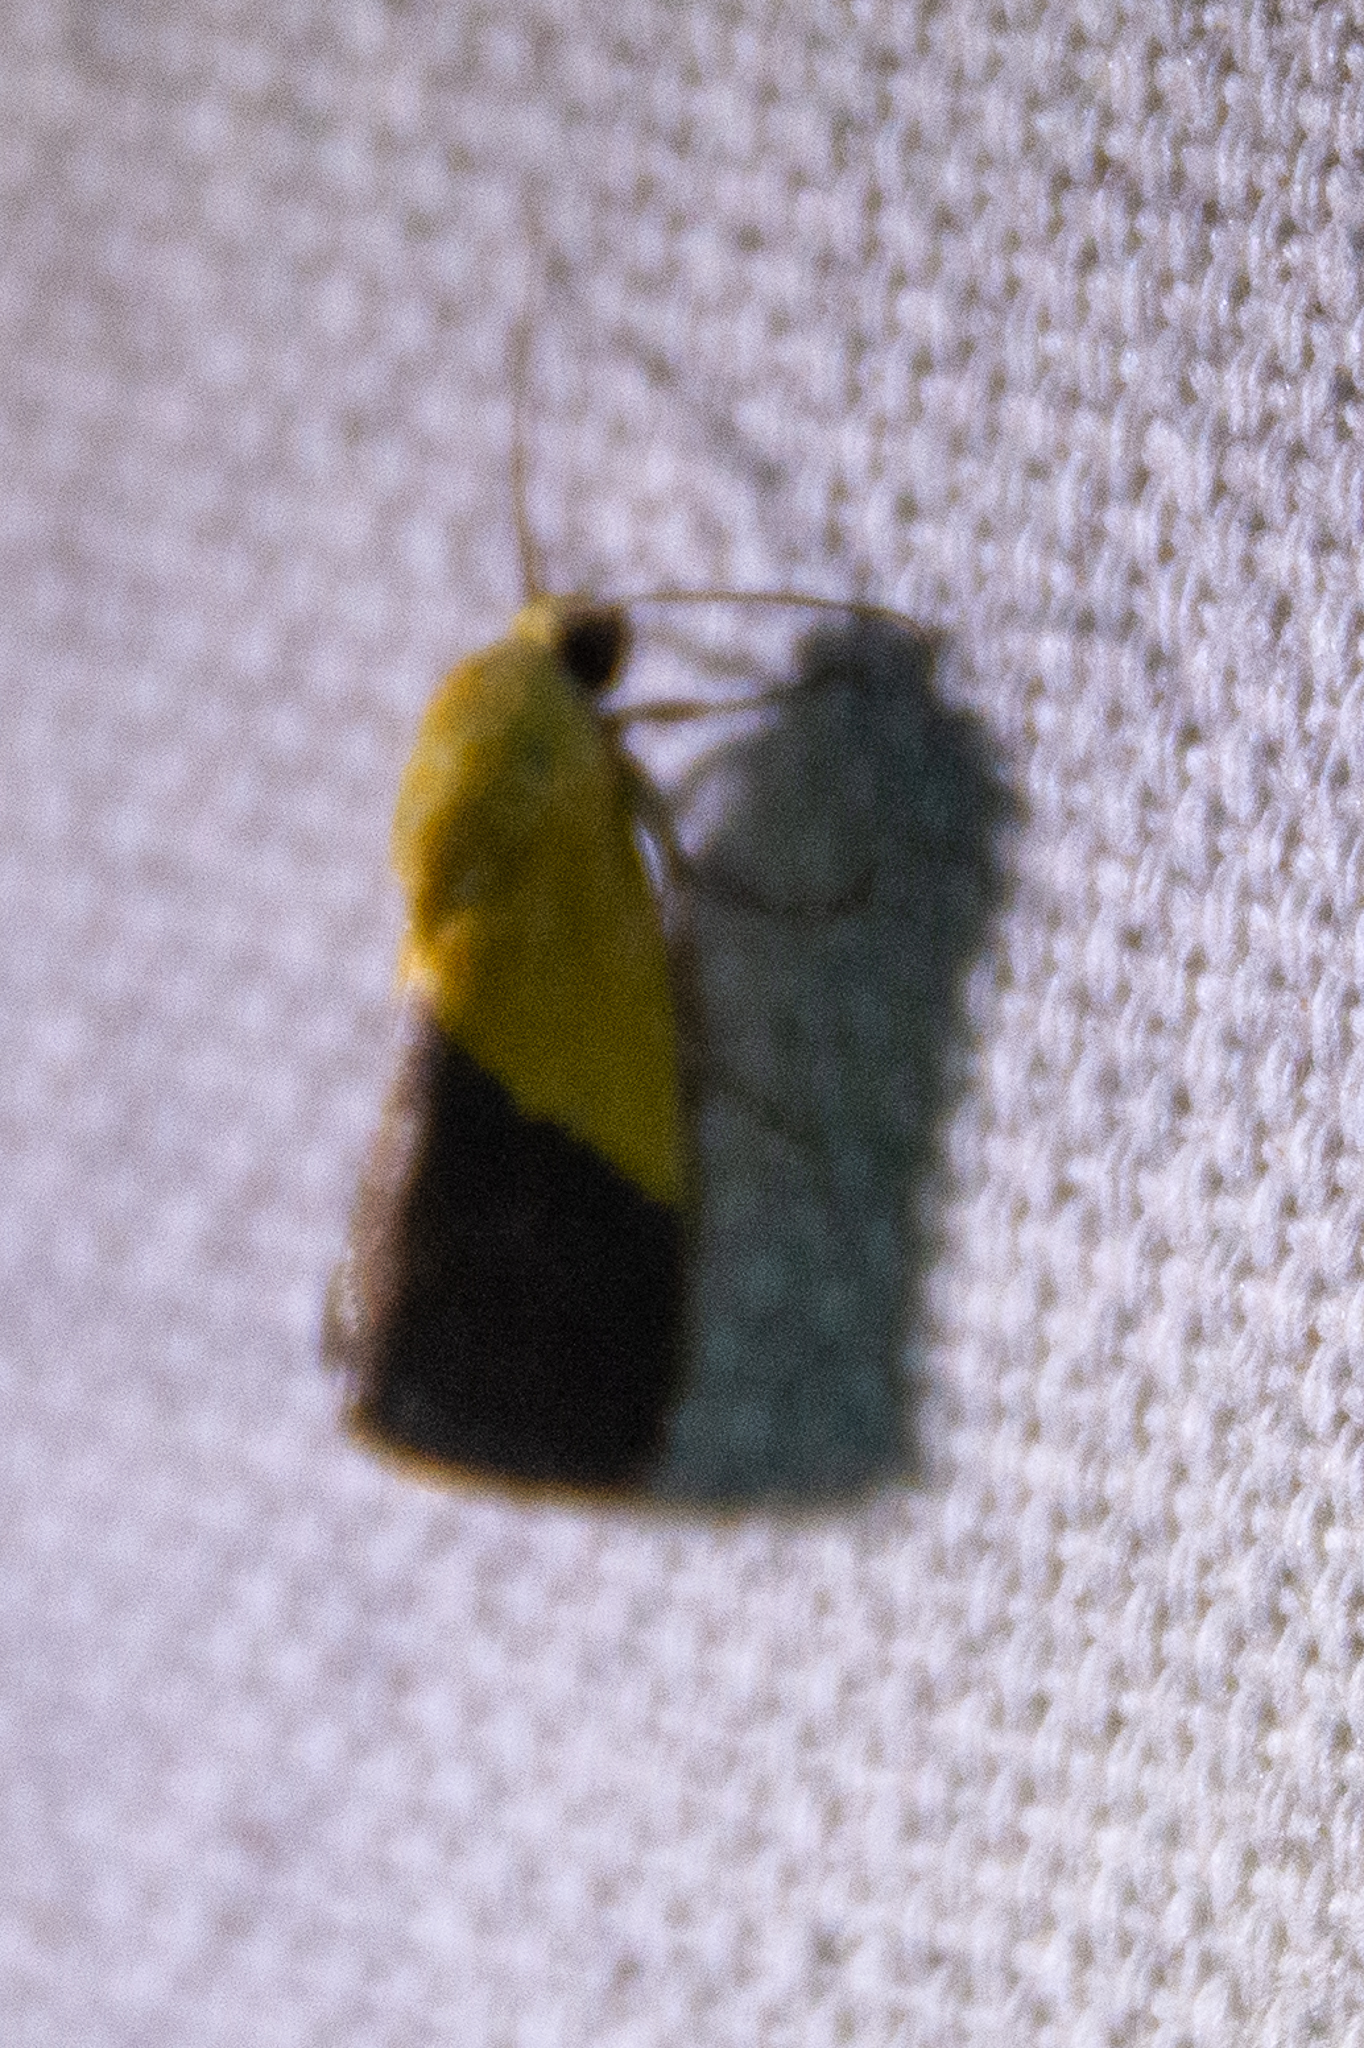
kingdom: Animalia
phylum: Arthropoda
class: Insecta
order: Lepidoptera
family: Noctuidae
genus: Acontia
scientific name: Acontia semiflava
